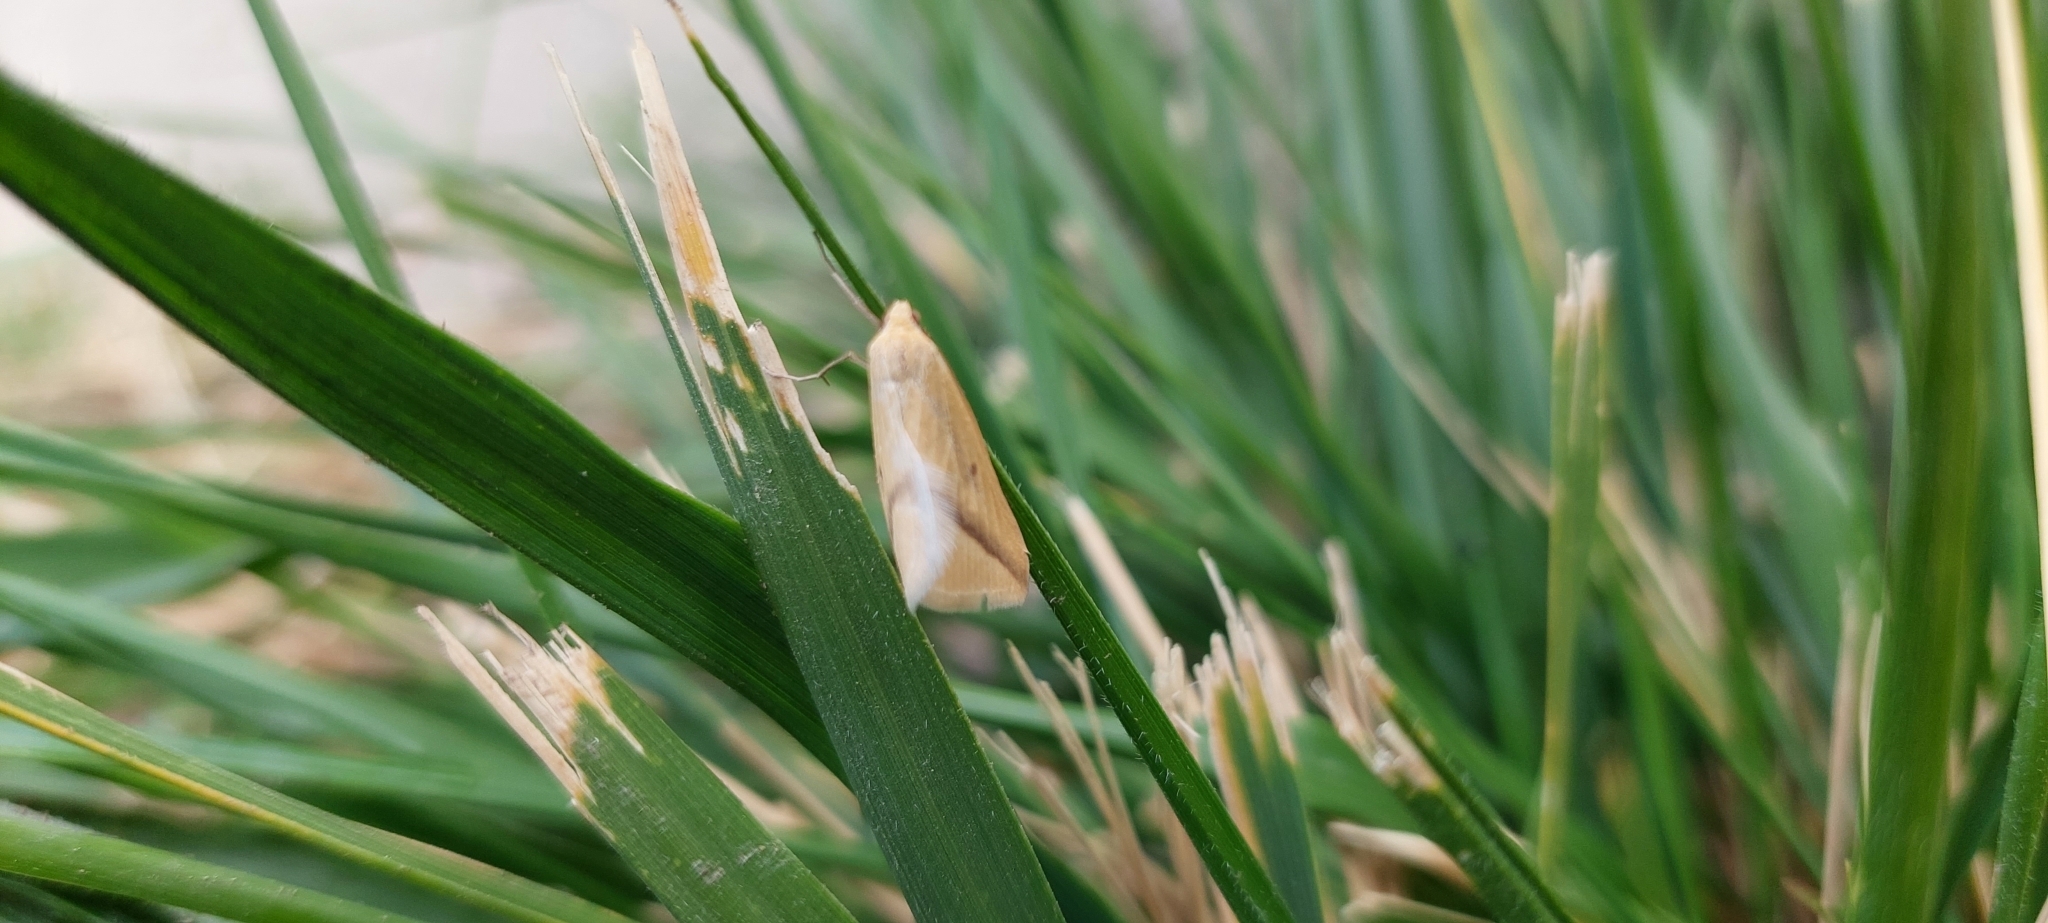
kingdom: Animalia
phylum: Arthropoda
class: Insecta
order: Lepidoptera
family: Geometridae
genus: Rhodometra
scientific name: Rhodometra sacraria
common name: Vestal
